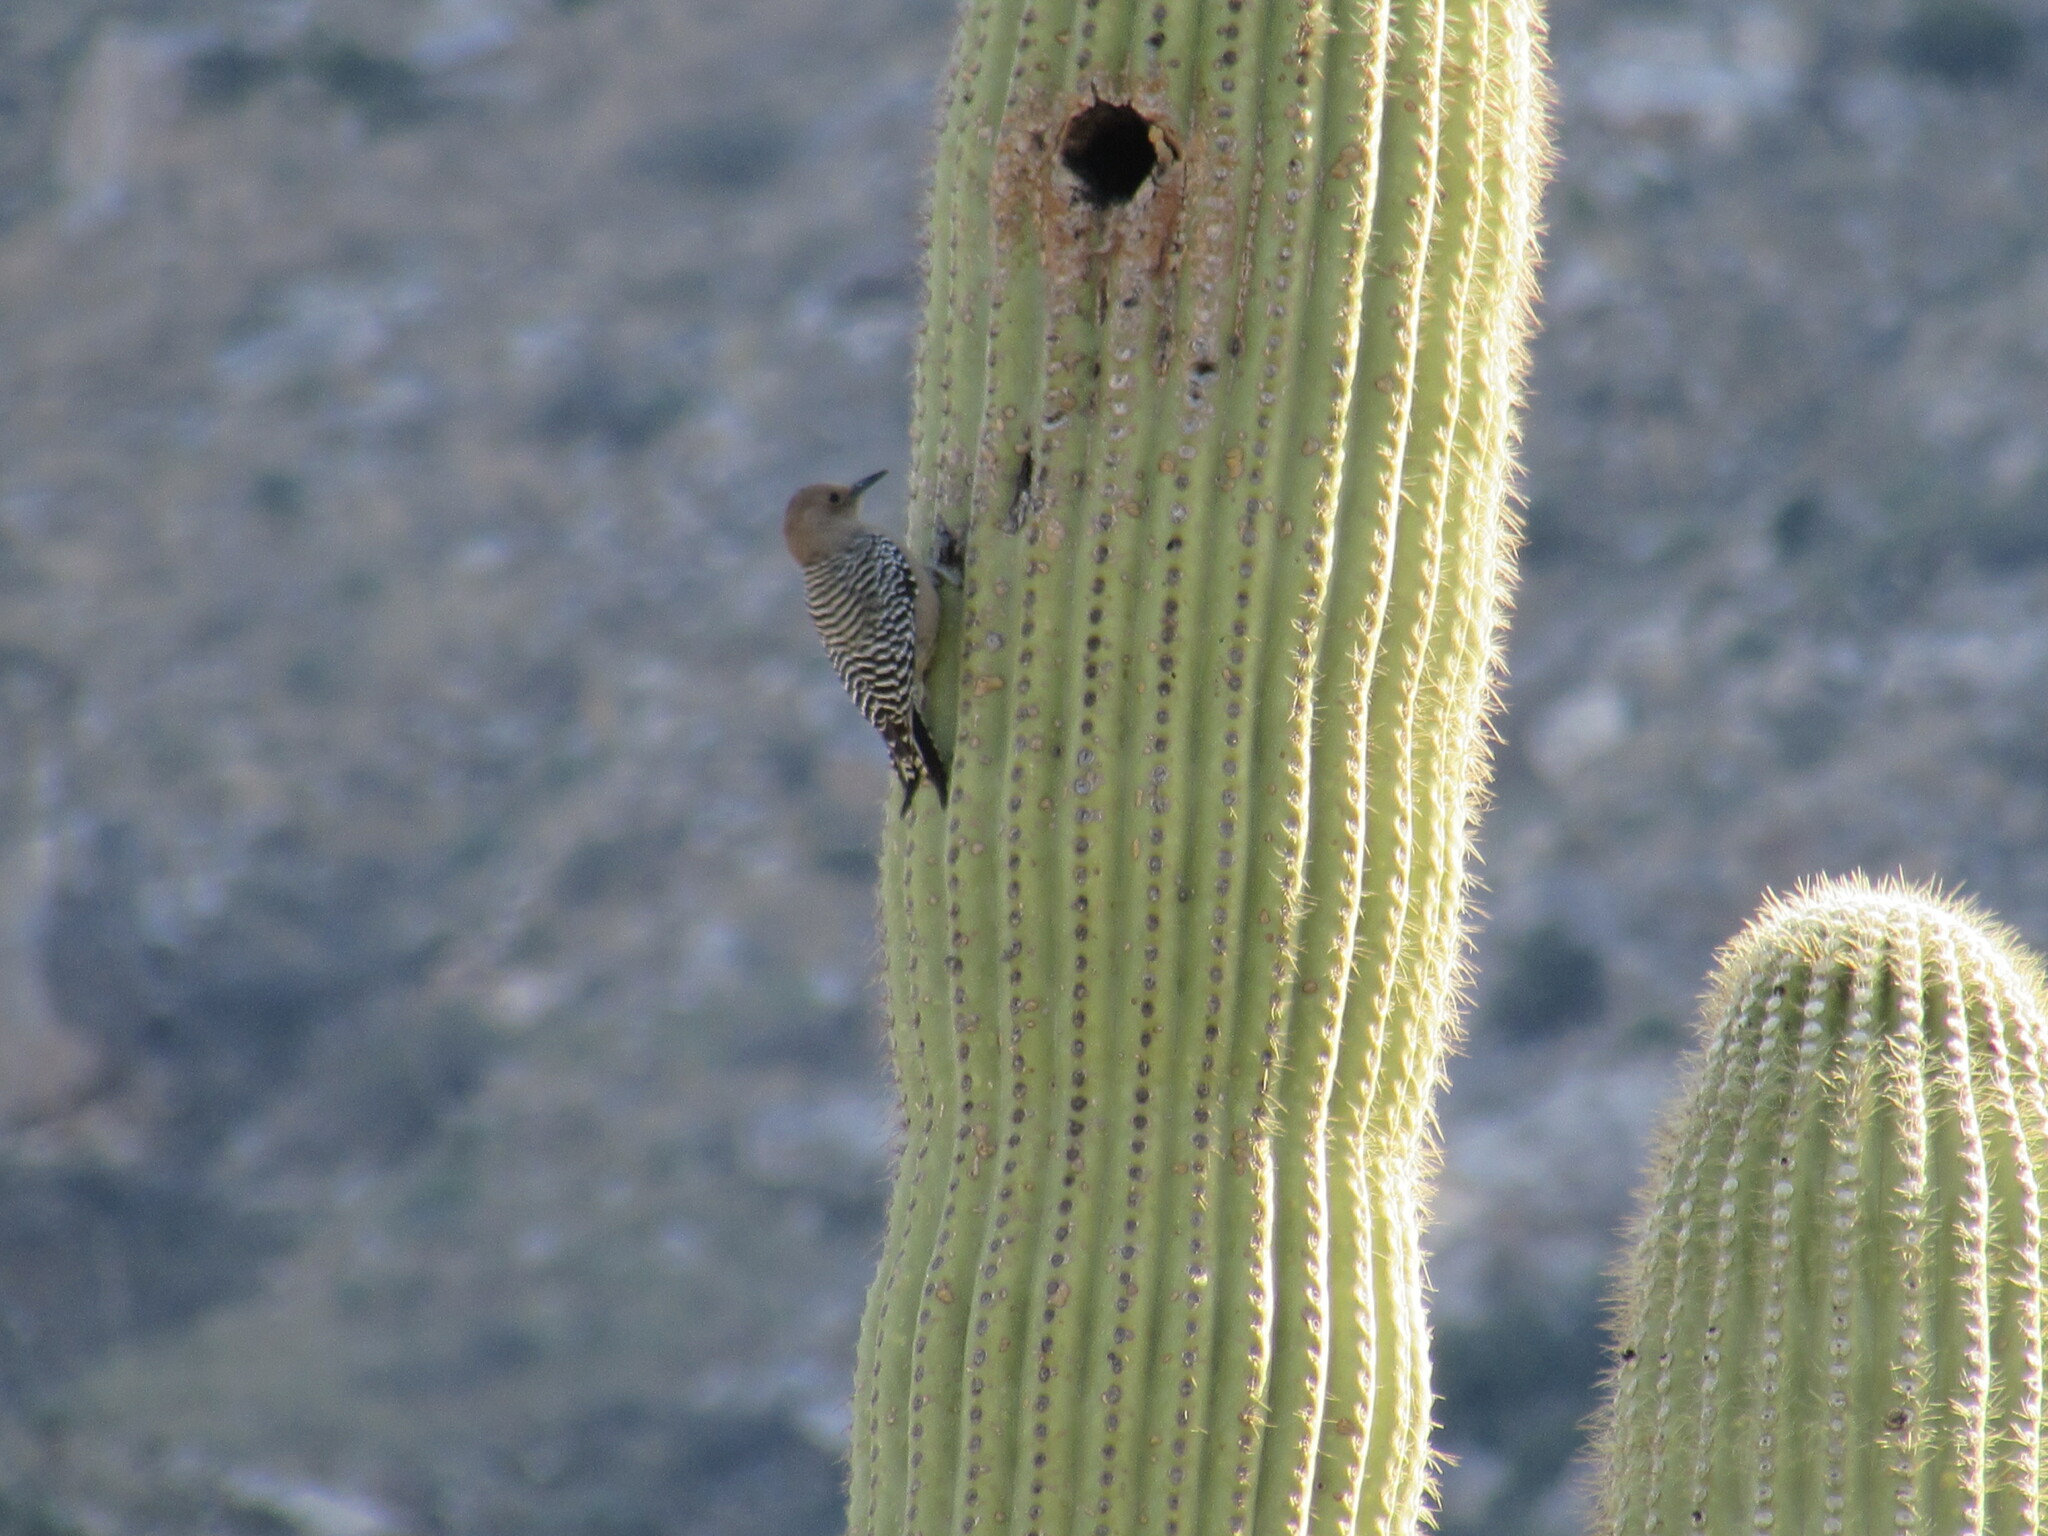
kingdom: Animalia
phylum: Chordata
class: Aves
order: Piciformes
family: Picidae
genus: Melanerpes
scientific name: Melanerpes uropygialis
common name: Gila woodpecker
